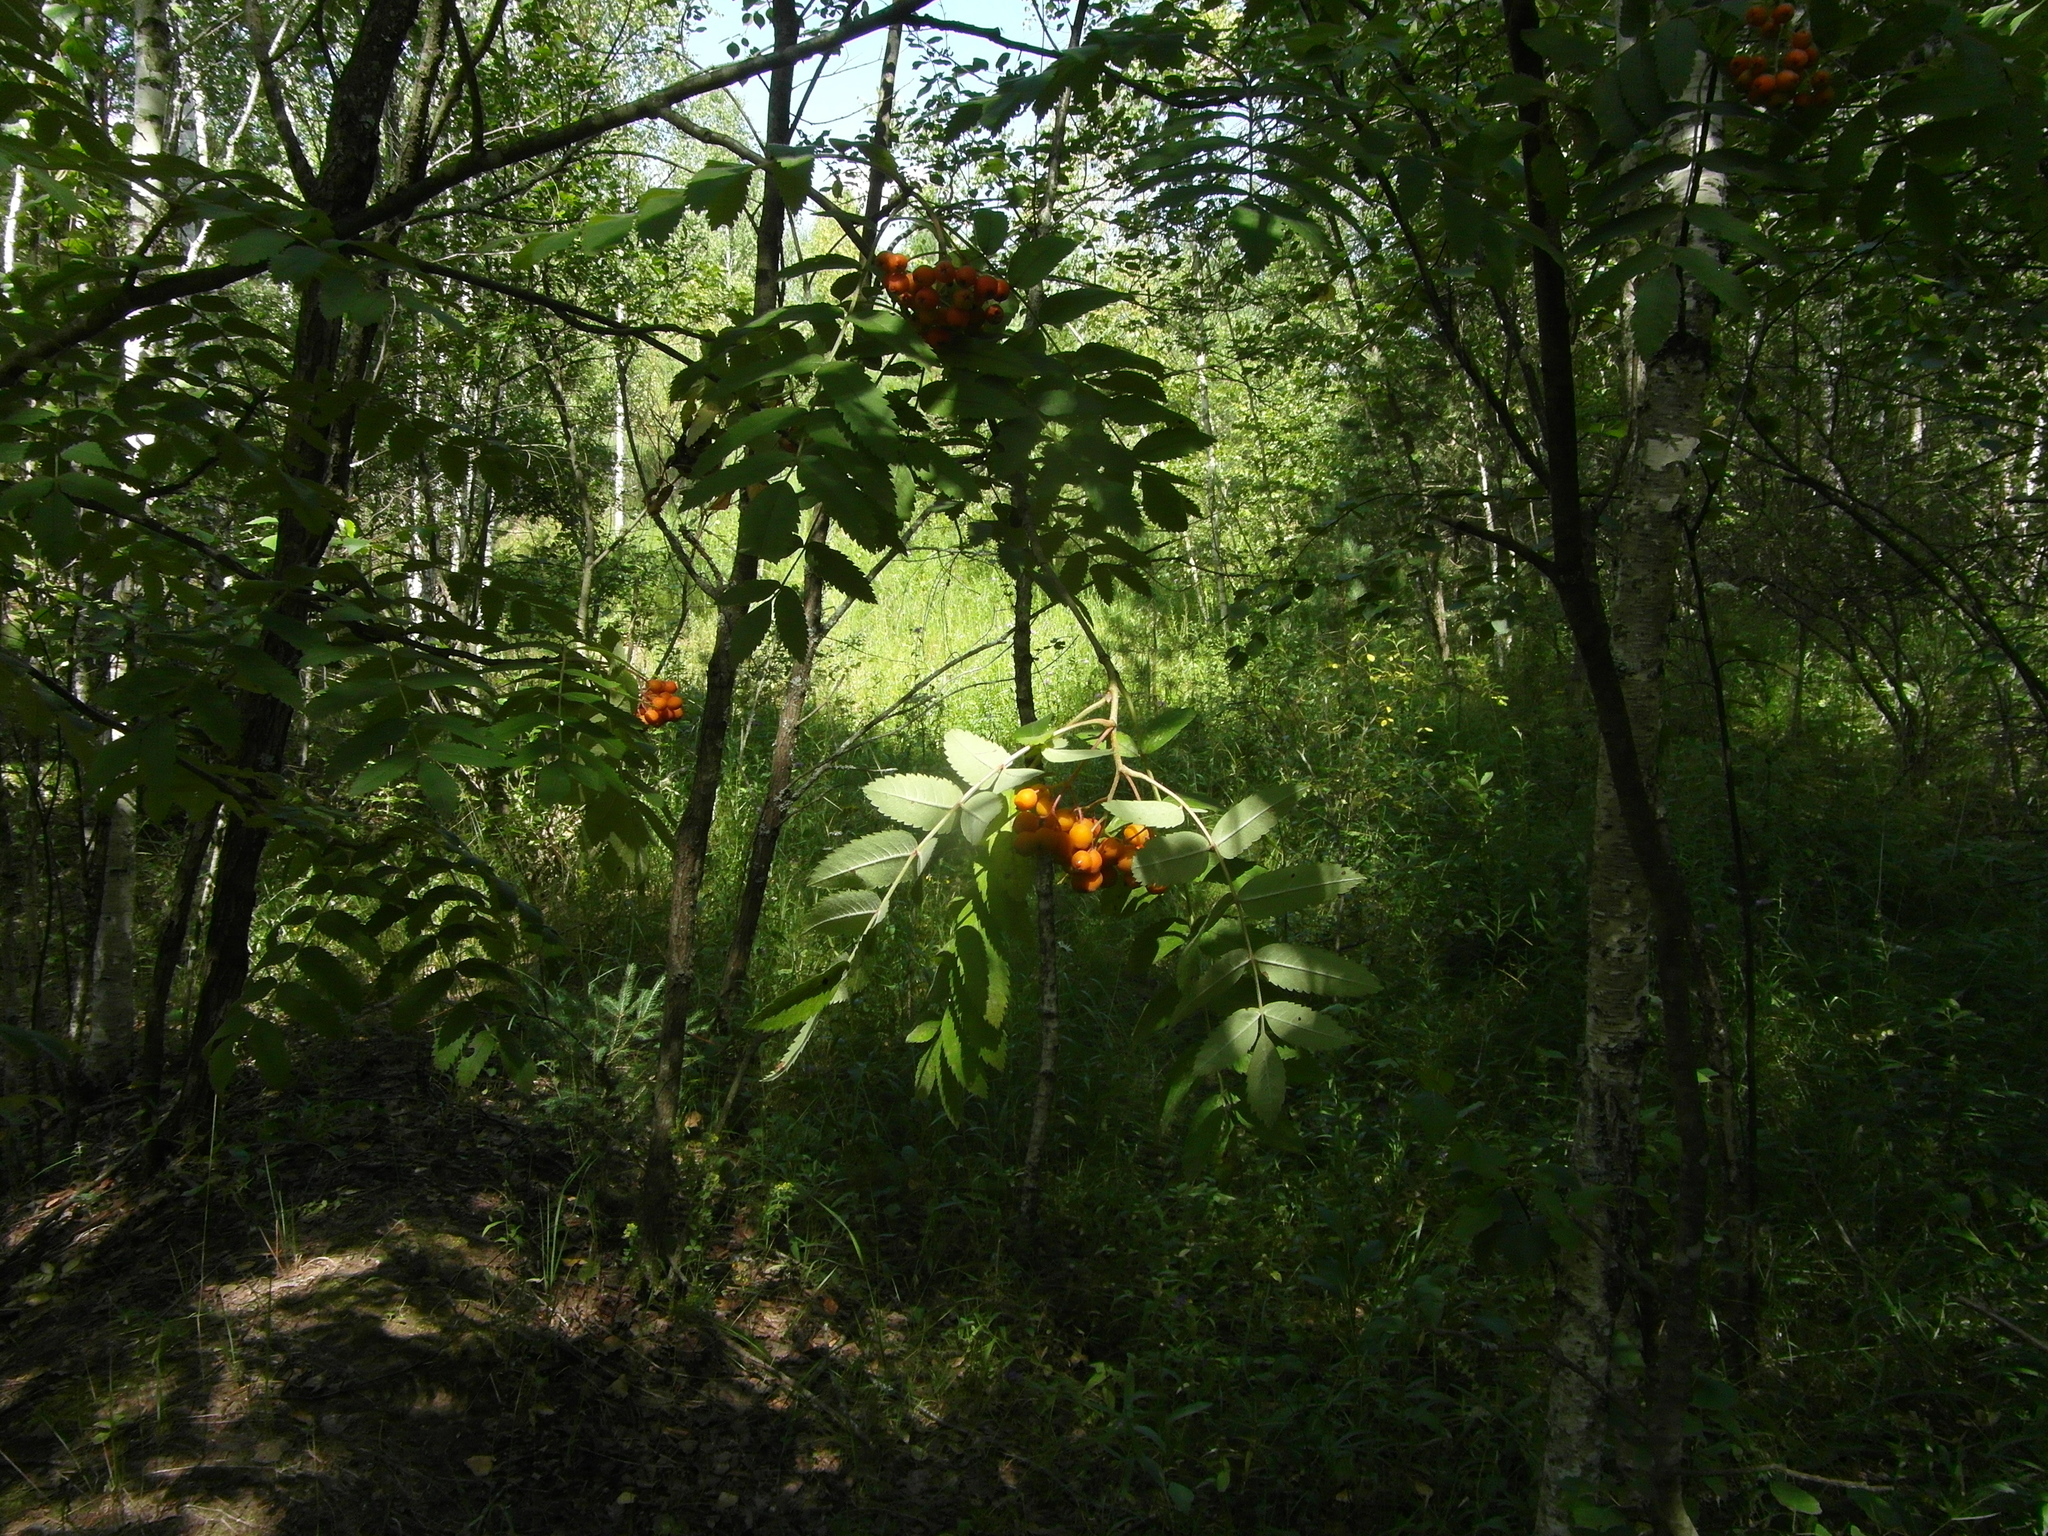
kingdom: Plantae
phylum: Tracheophyta
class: Magnoliopsida
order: Rosales
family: Rosaceae
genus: Sorbus
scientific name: Sorbus aucuparia
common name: Rowan
